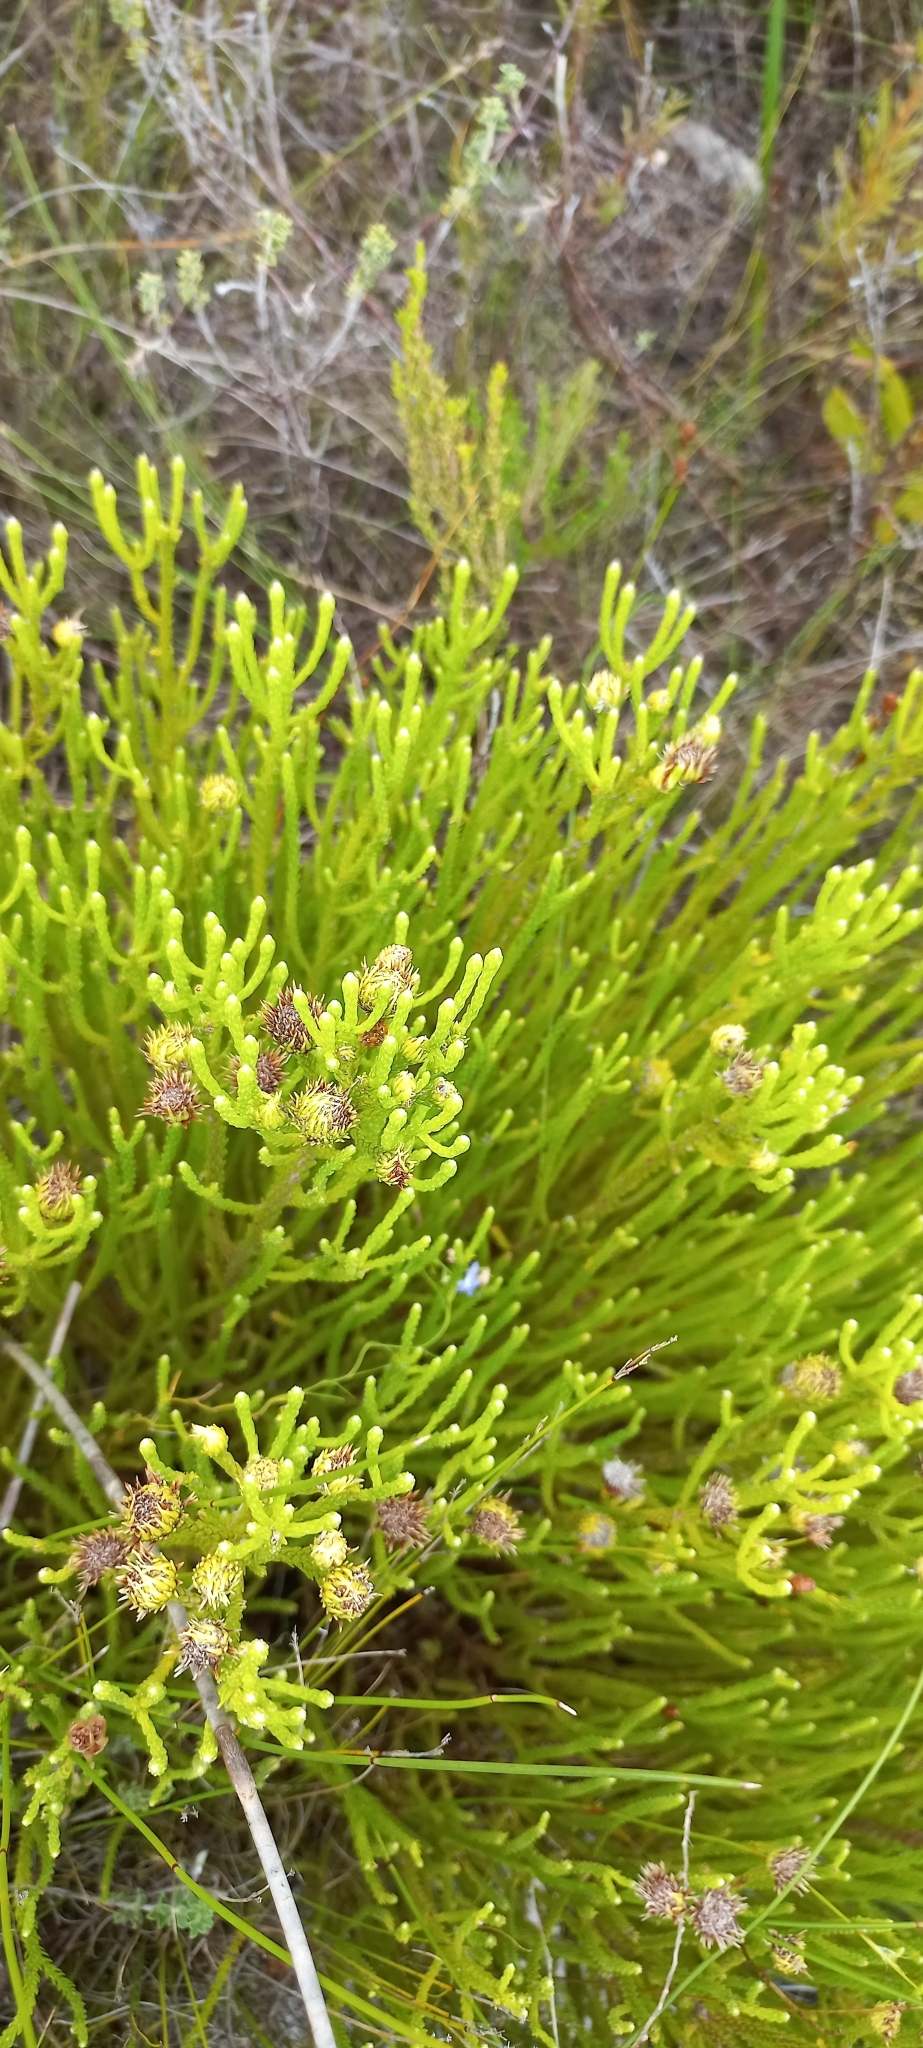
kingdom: Plantae
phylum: Tracheophyta
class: Magnoliopsida
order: Bruniales
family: Bruniaceae
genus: Brunia
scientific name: Brunia paleacea
